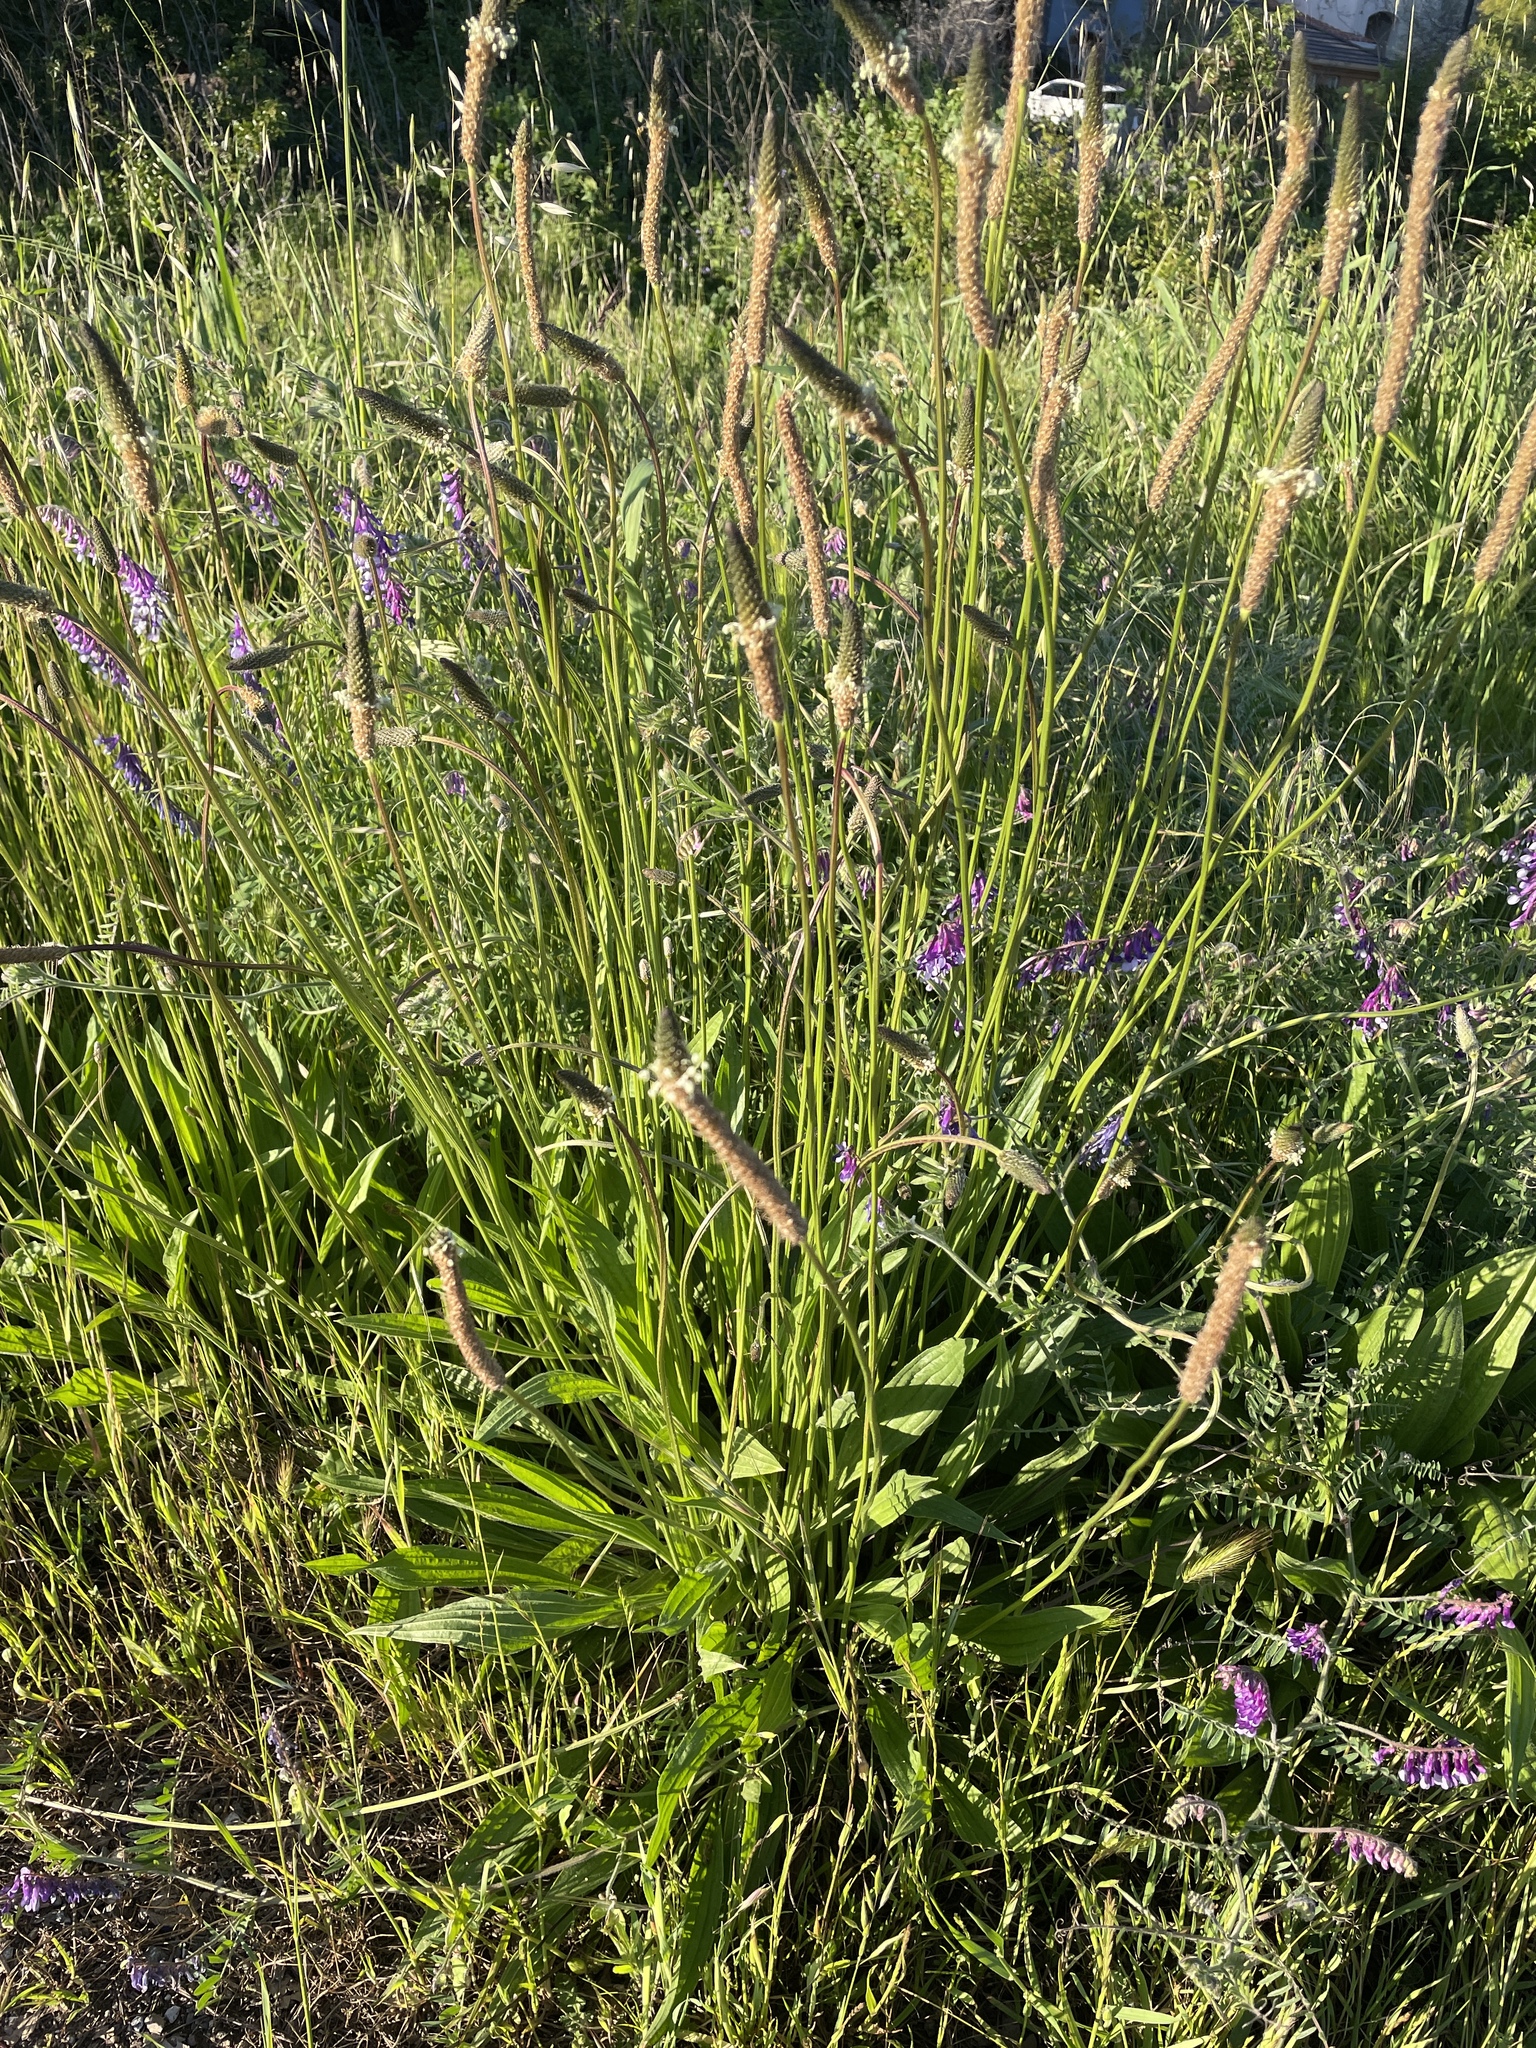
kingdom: Plantae
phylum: Tracheophyta
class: Magnoliopsida
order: Lamiales
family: Plantaginaceae
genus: Plantago
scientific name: Plantago lanceolata
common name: Ribwort plantain
